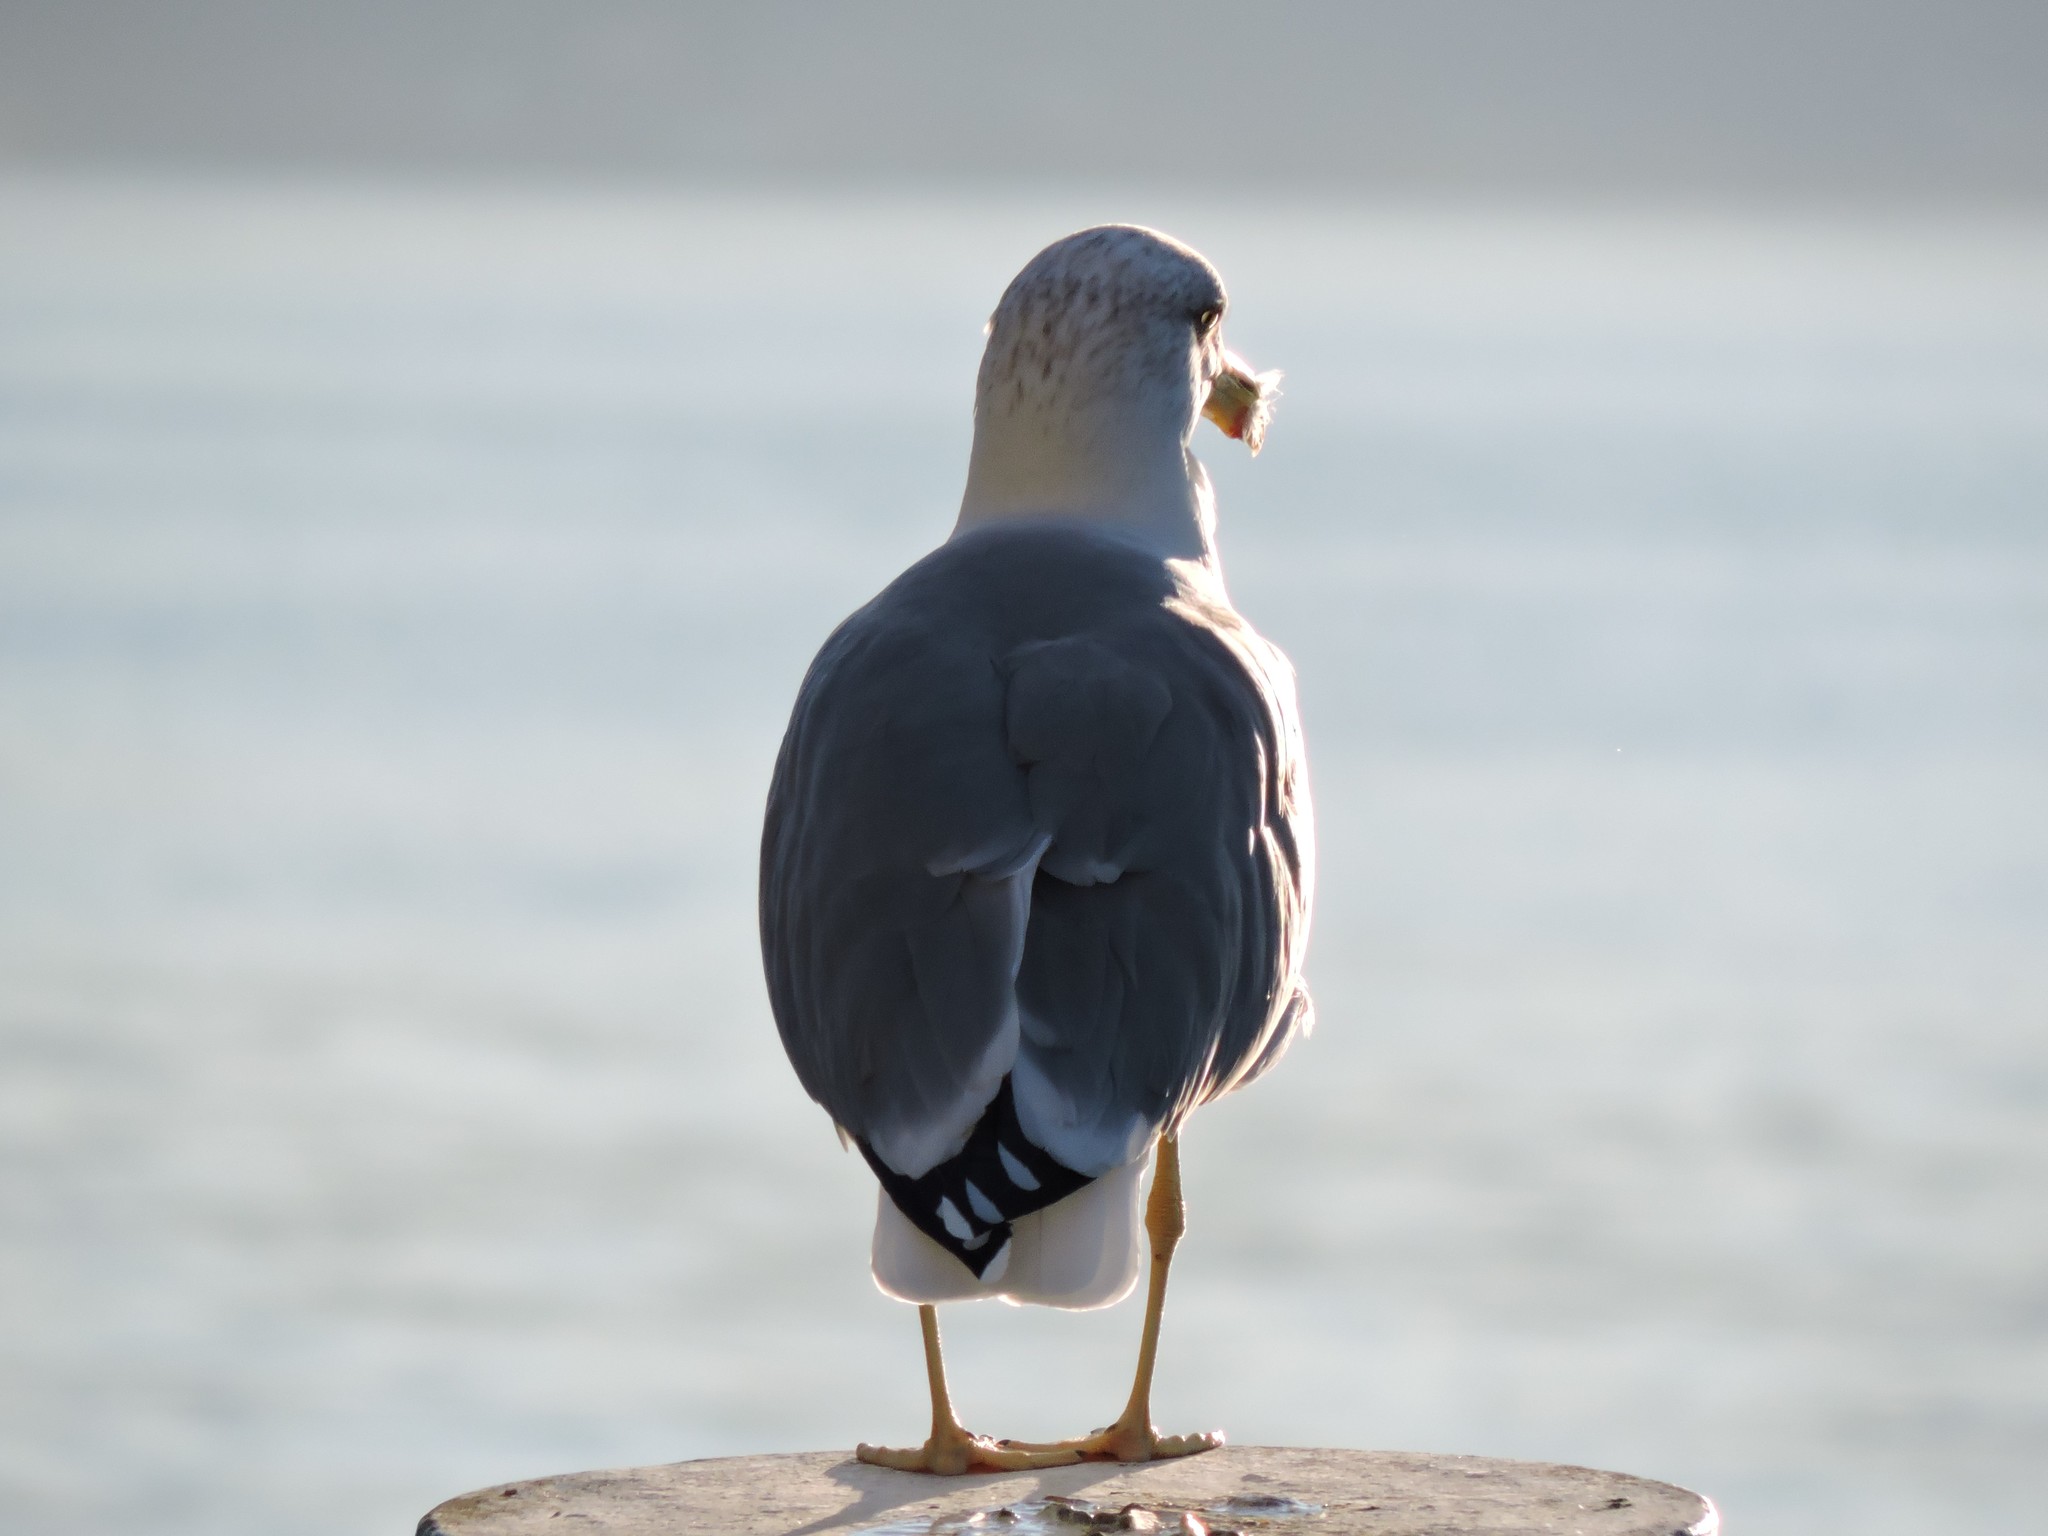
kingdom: Animalia
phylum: Chordata
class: Aves
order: Charadriiformes
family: Laridae
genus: Larus
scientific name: Larus michahellis
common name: Yellow-legged gull
